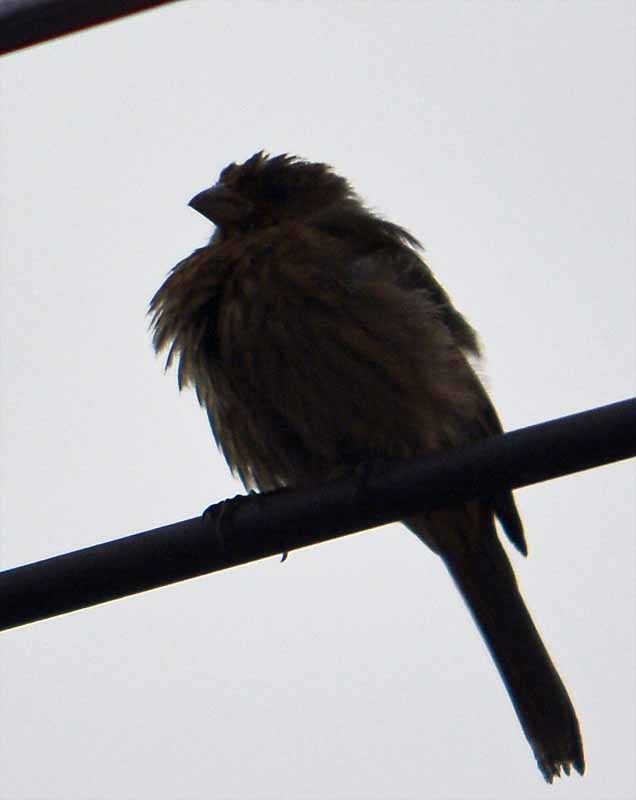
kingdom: Animalia
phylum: Chordata
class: Aves
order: Passeriformes
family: Fringillidae
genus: Haemorhous
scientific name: Haemorhous mexicanus
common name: House finch
